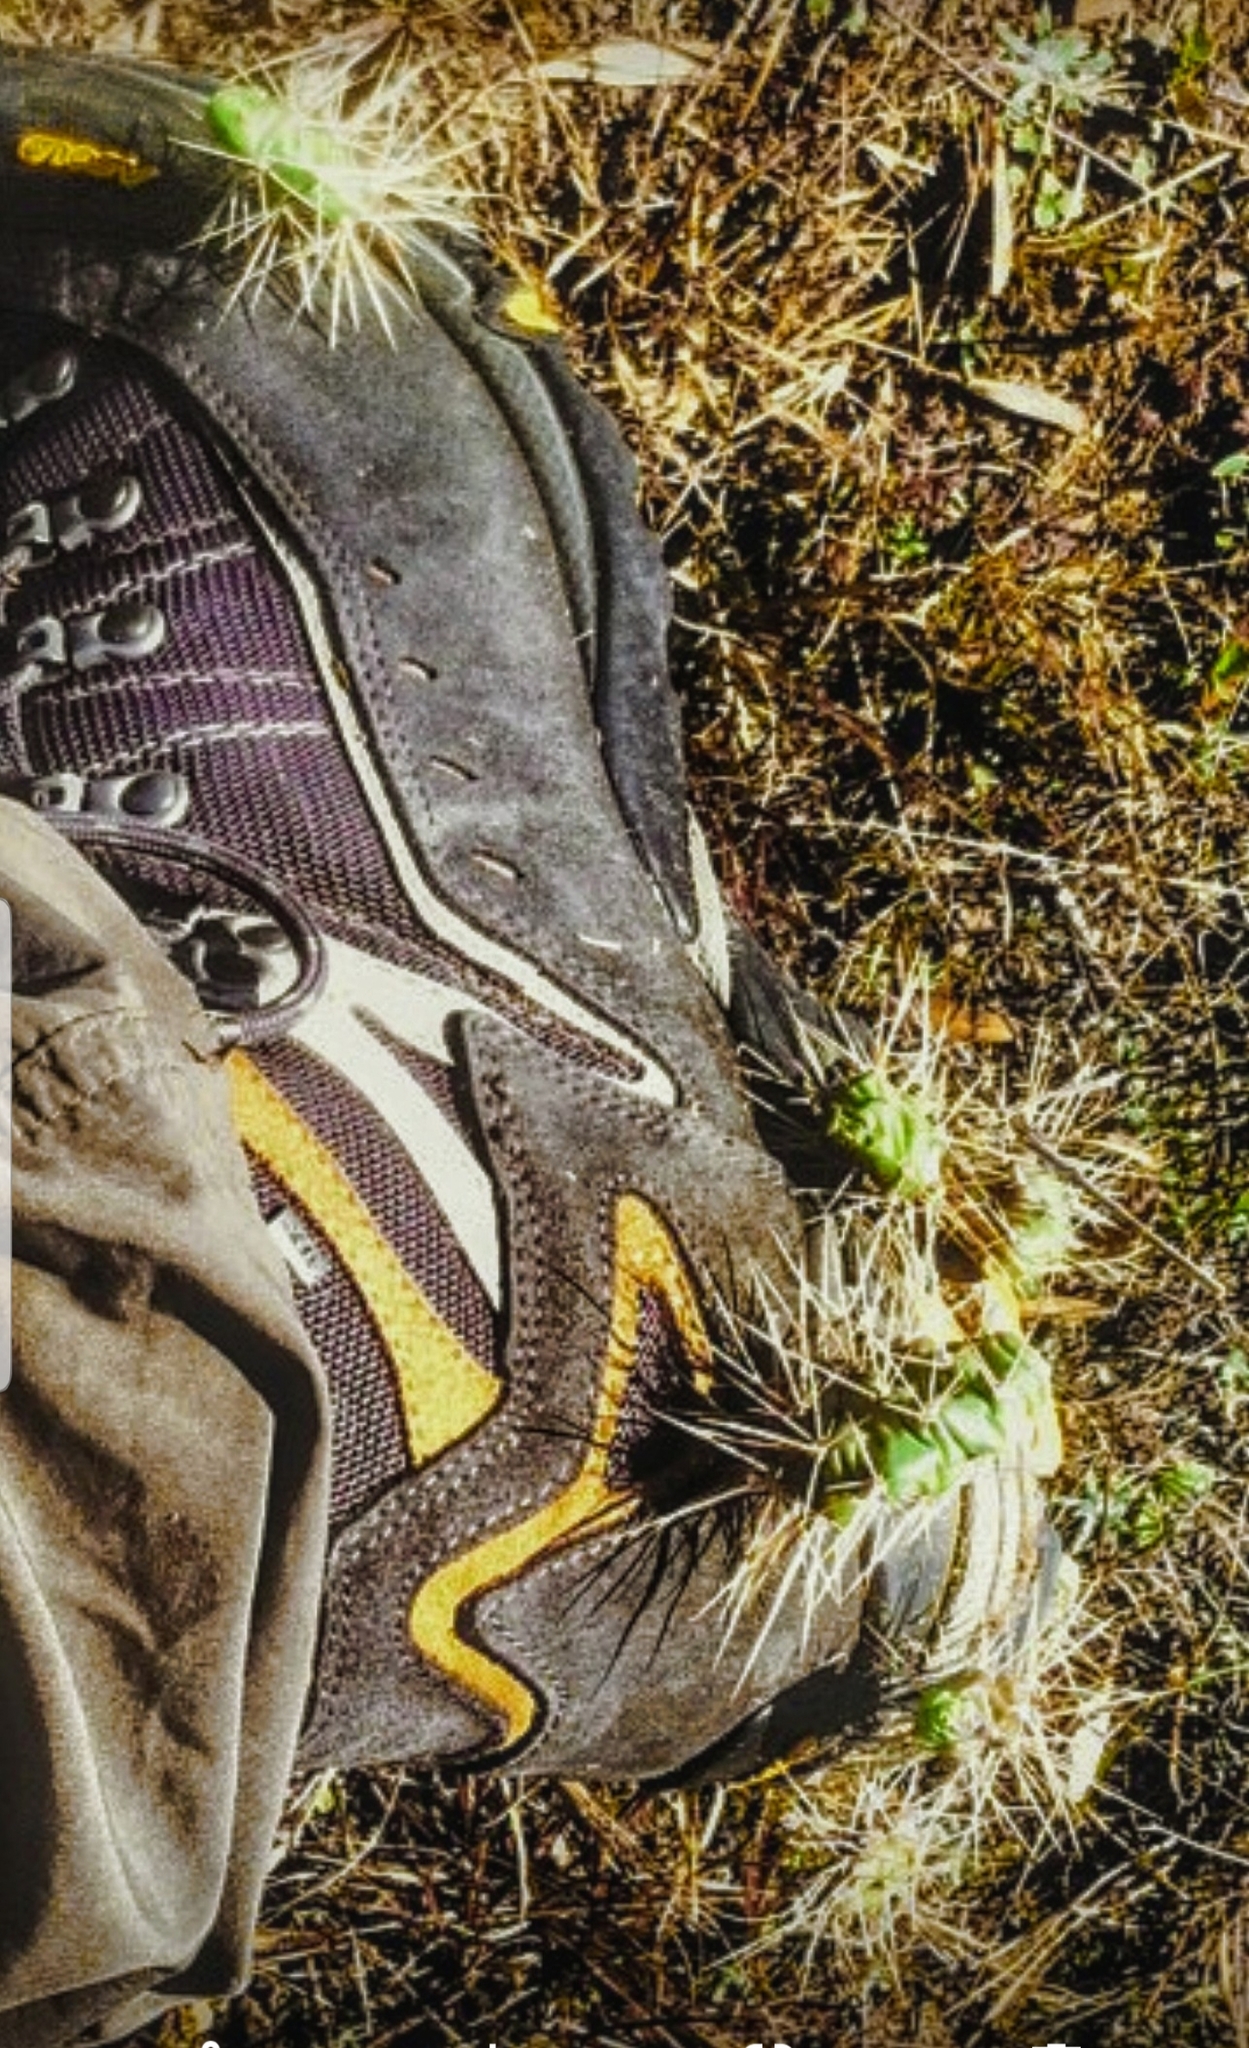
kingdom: Plantae
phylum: Tracheophyta
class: Magnoliopsida
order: Caryophyllales
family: Cactaceae
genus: Opuntia
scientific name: Opuntia fragilis
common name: Brittle cactus
